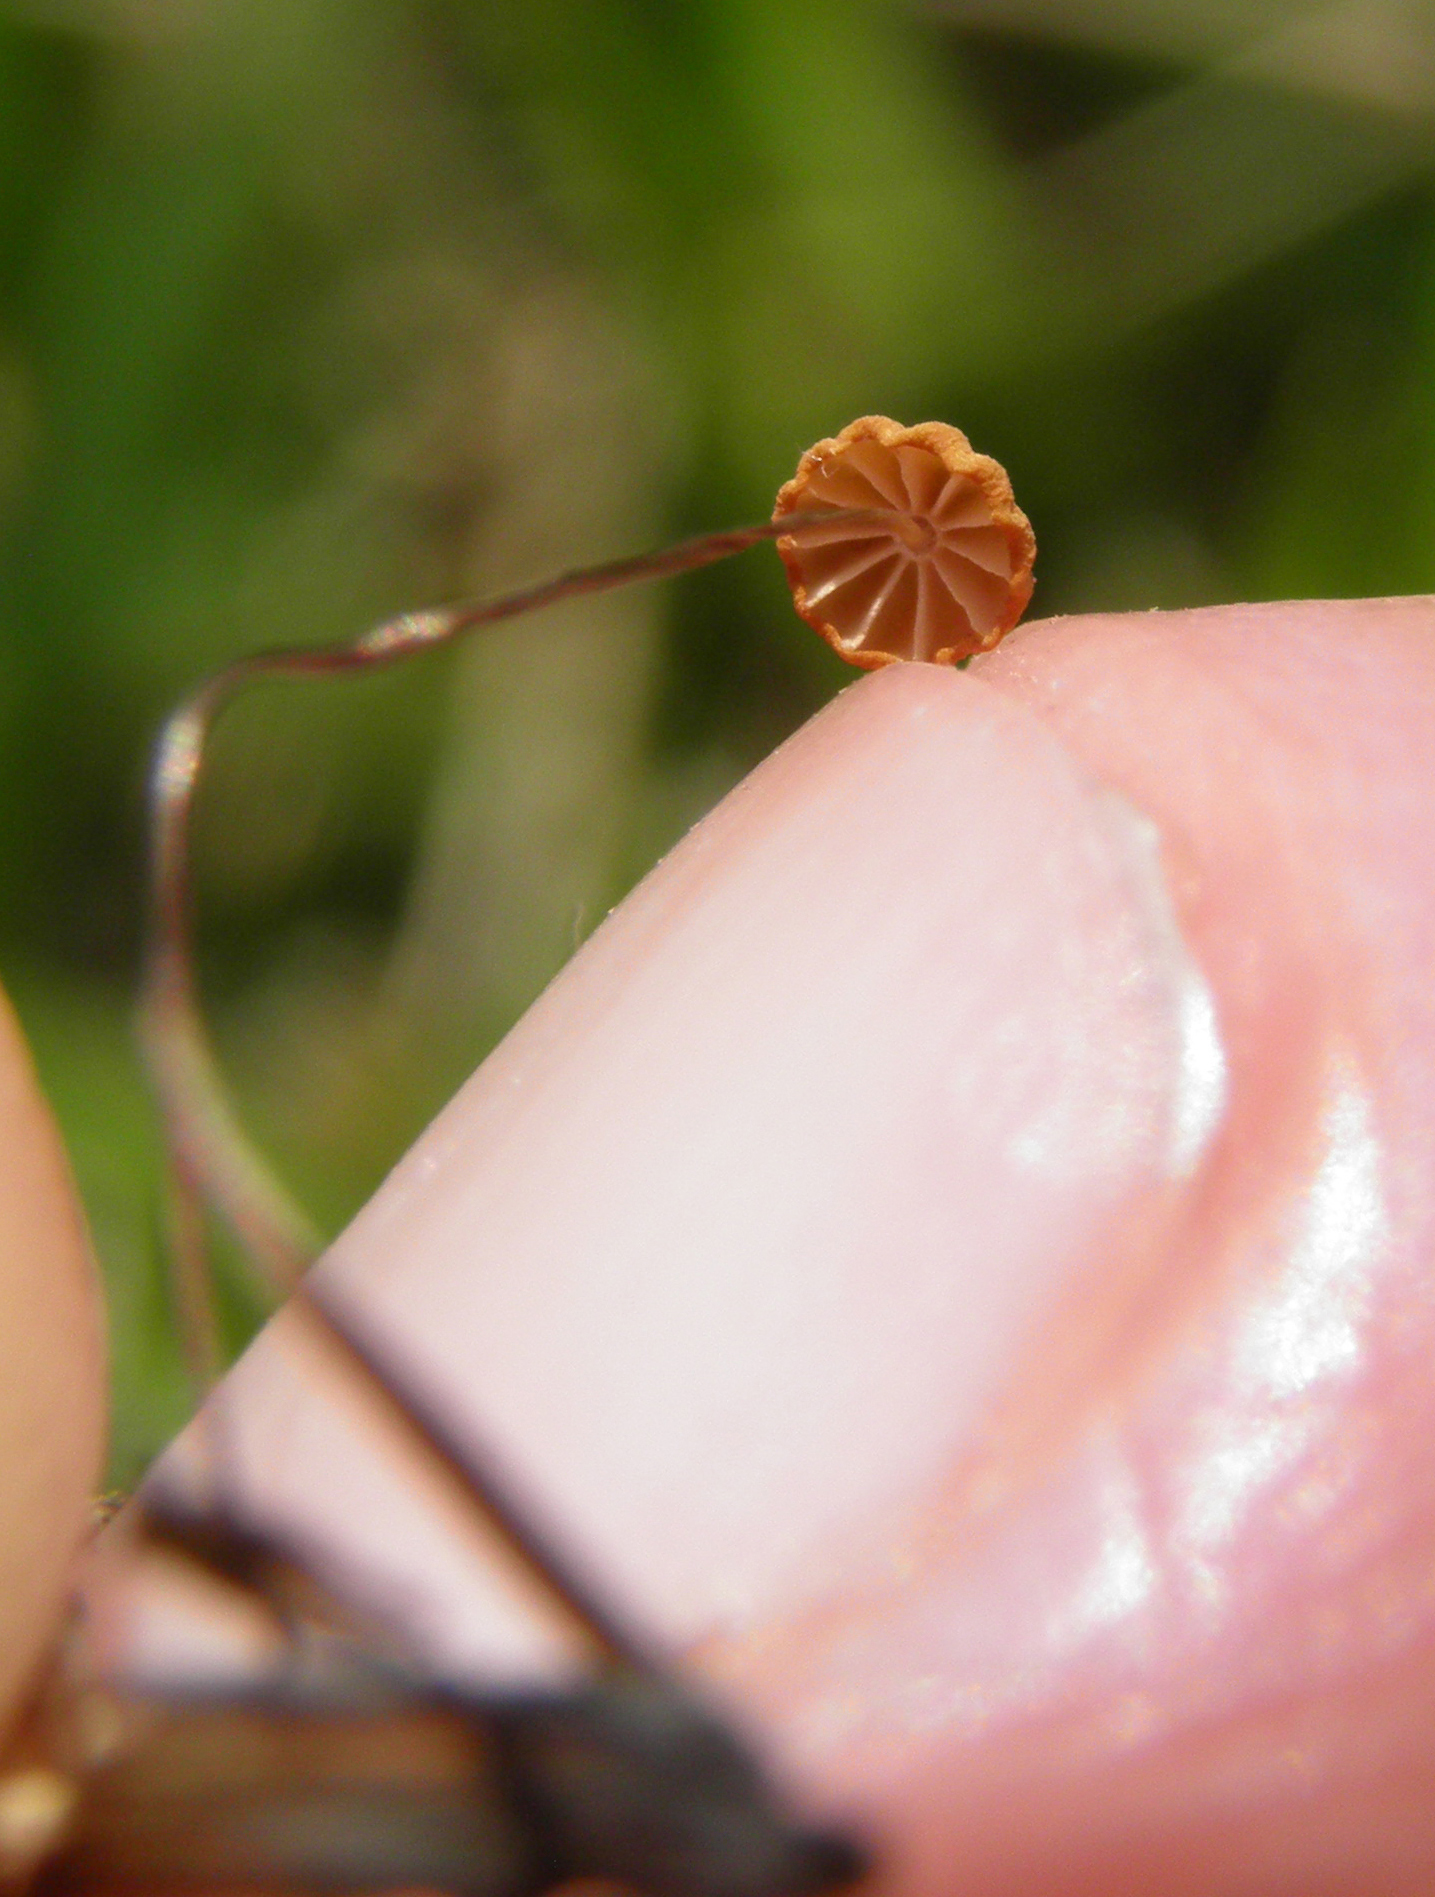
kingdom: Fungi
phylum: Basidiomycota
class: Agaricomycetes
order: Agaricales
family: Marasmiaceae
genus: Marasmius
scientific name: Marasmius graminum
